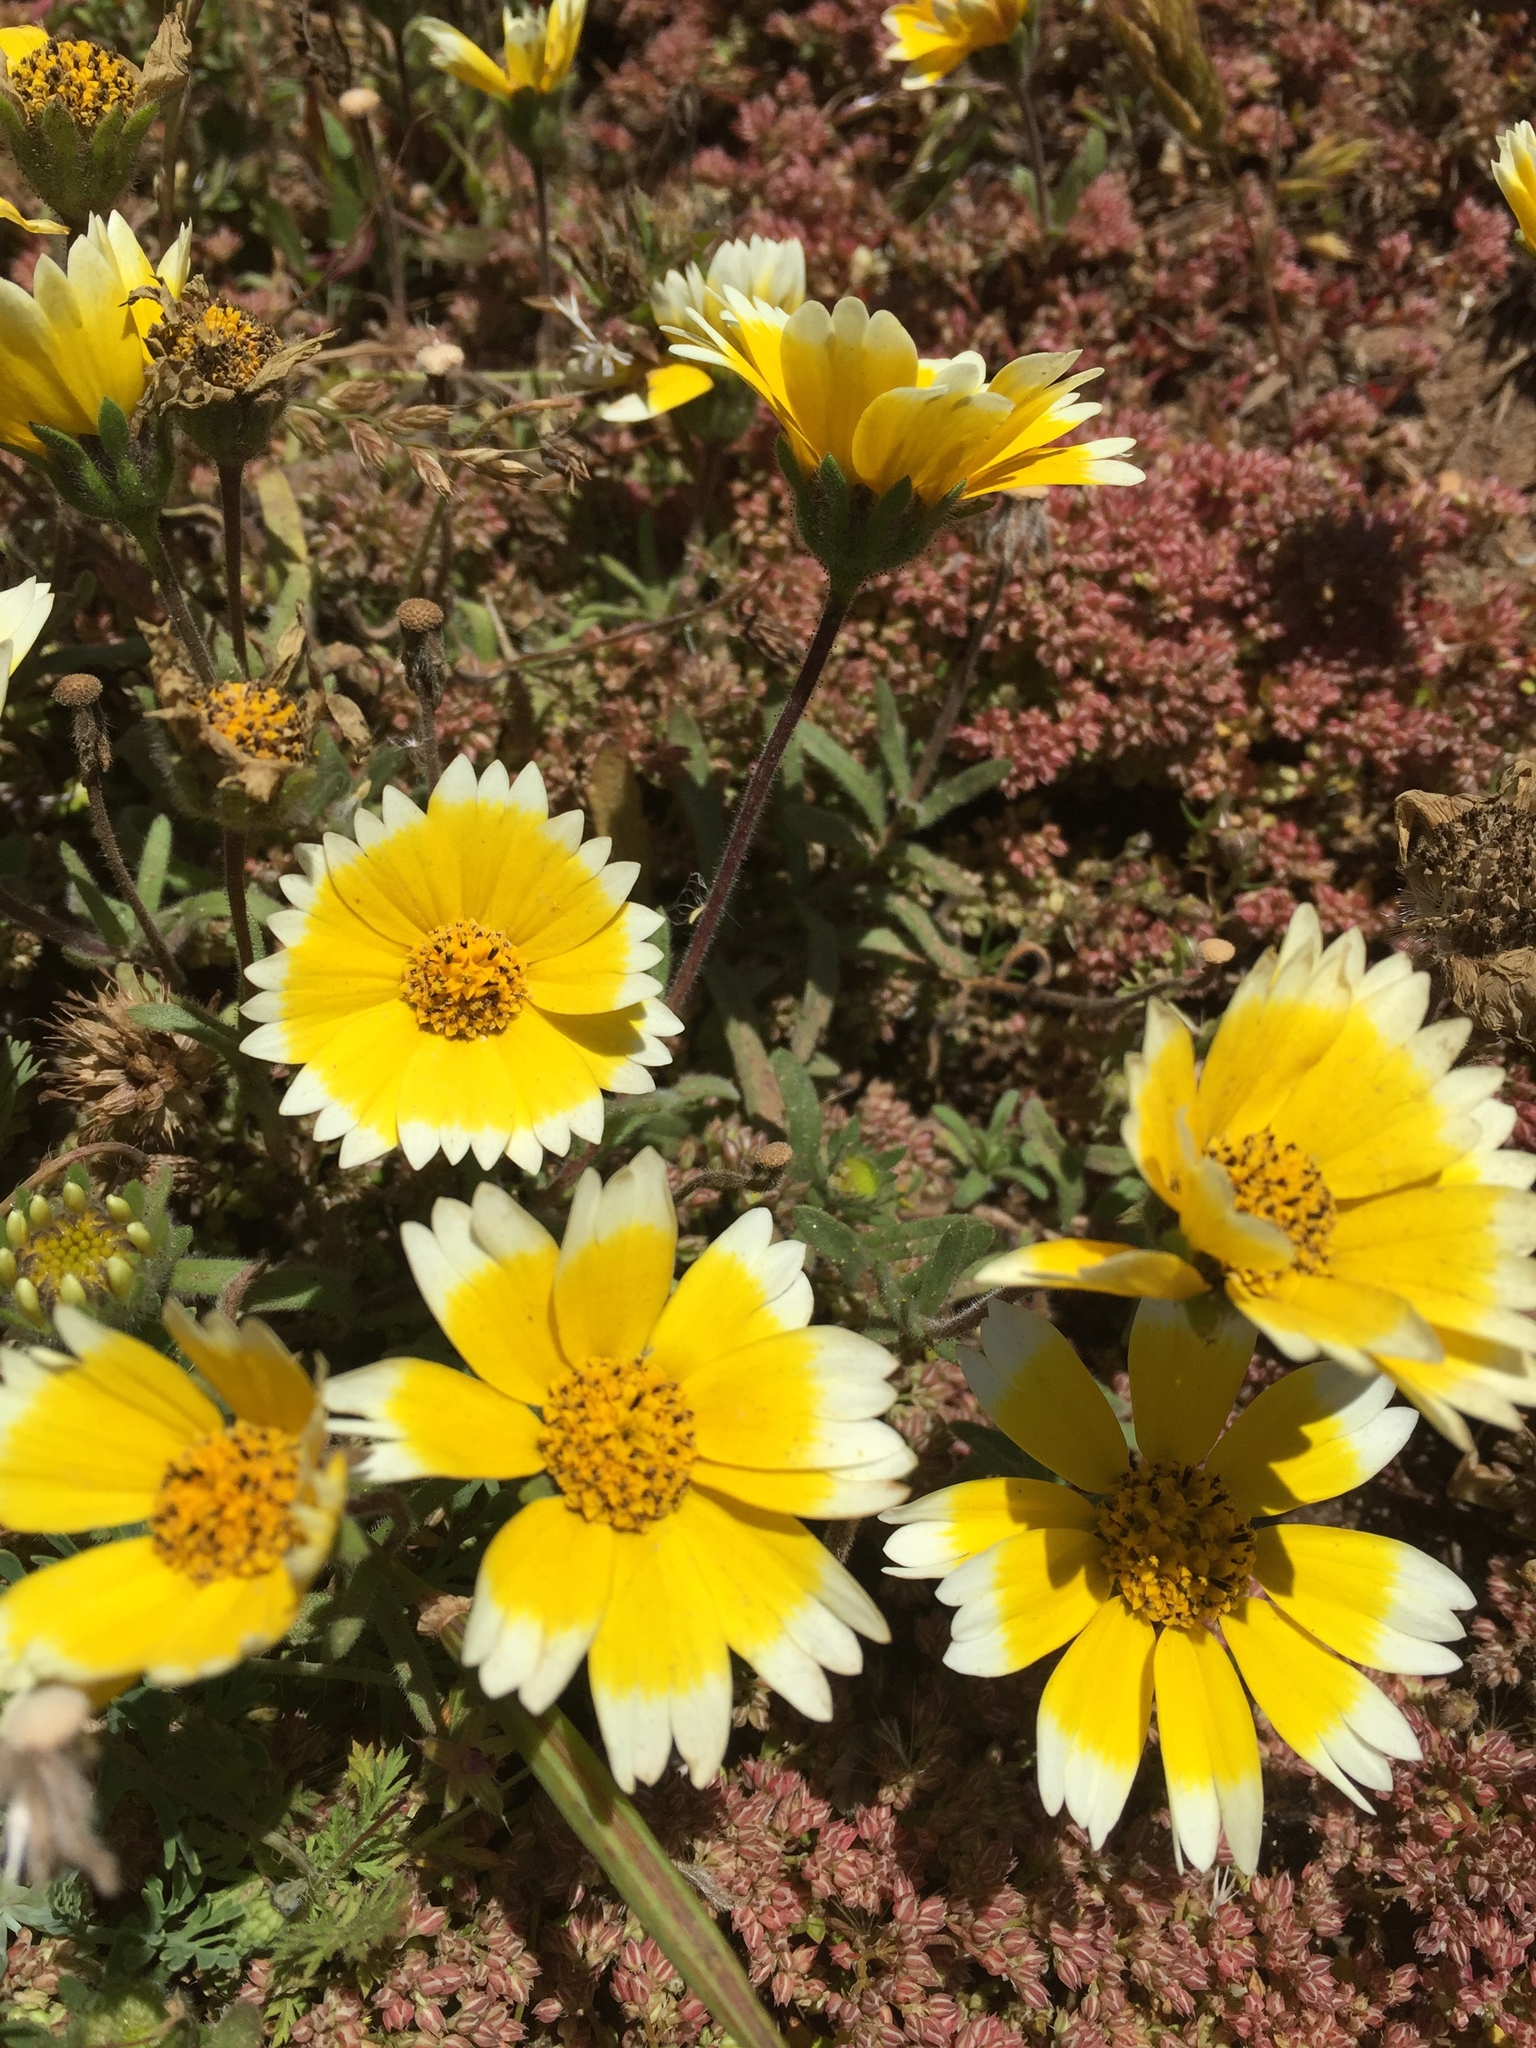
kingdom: Plantae
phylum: Tracheophyta
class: Magnoliopsida
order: Asterales
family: Asteraceae
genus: Layia
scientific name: Layia platyglossa
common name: Tidy-tips
